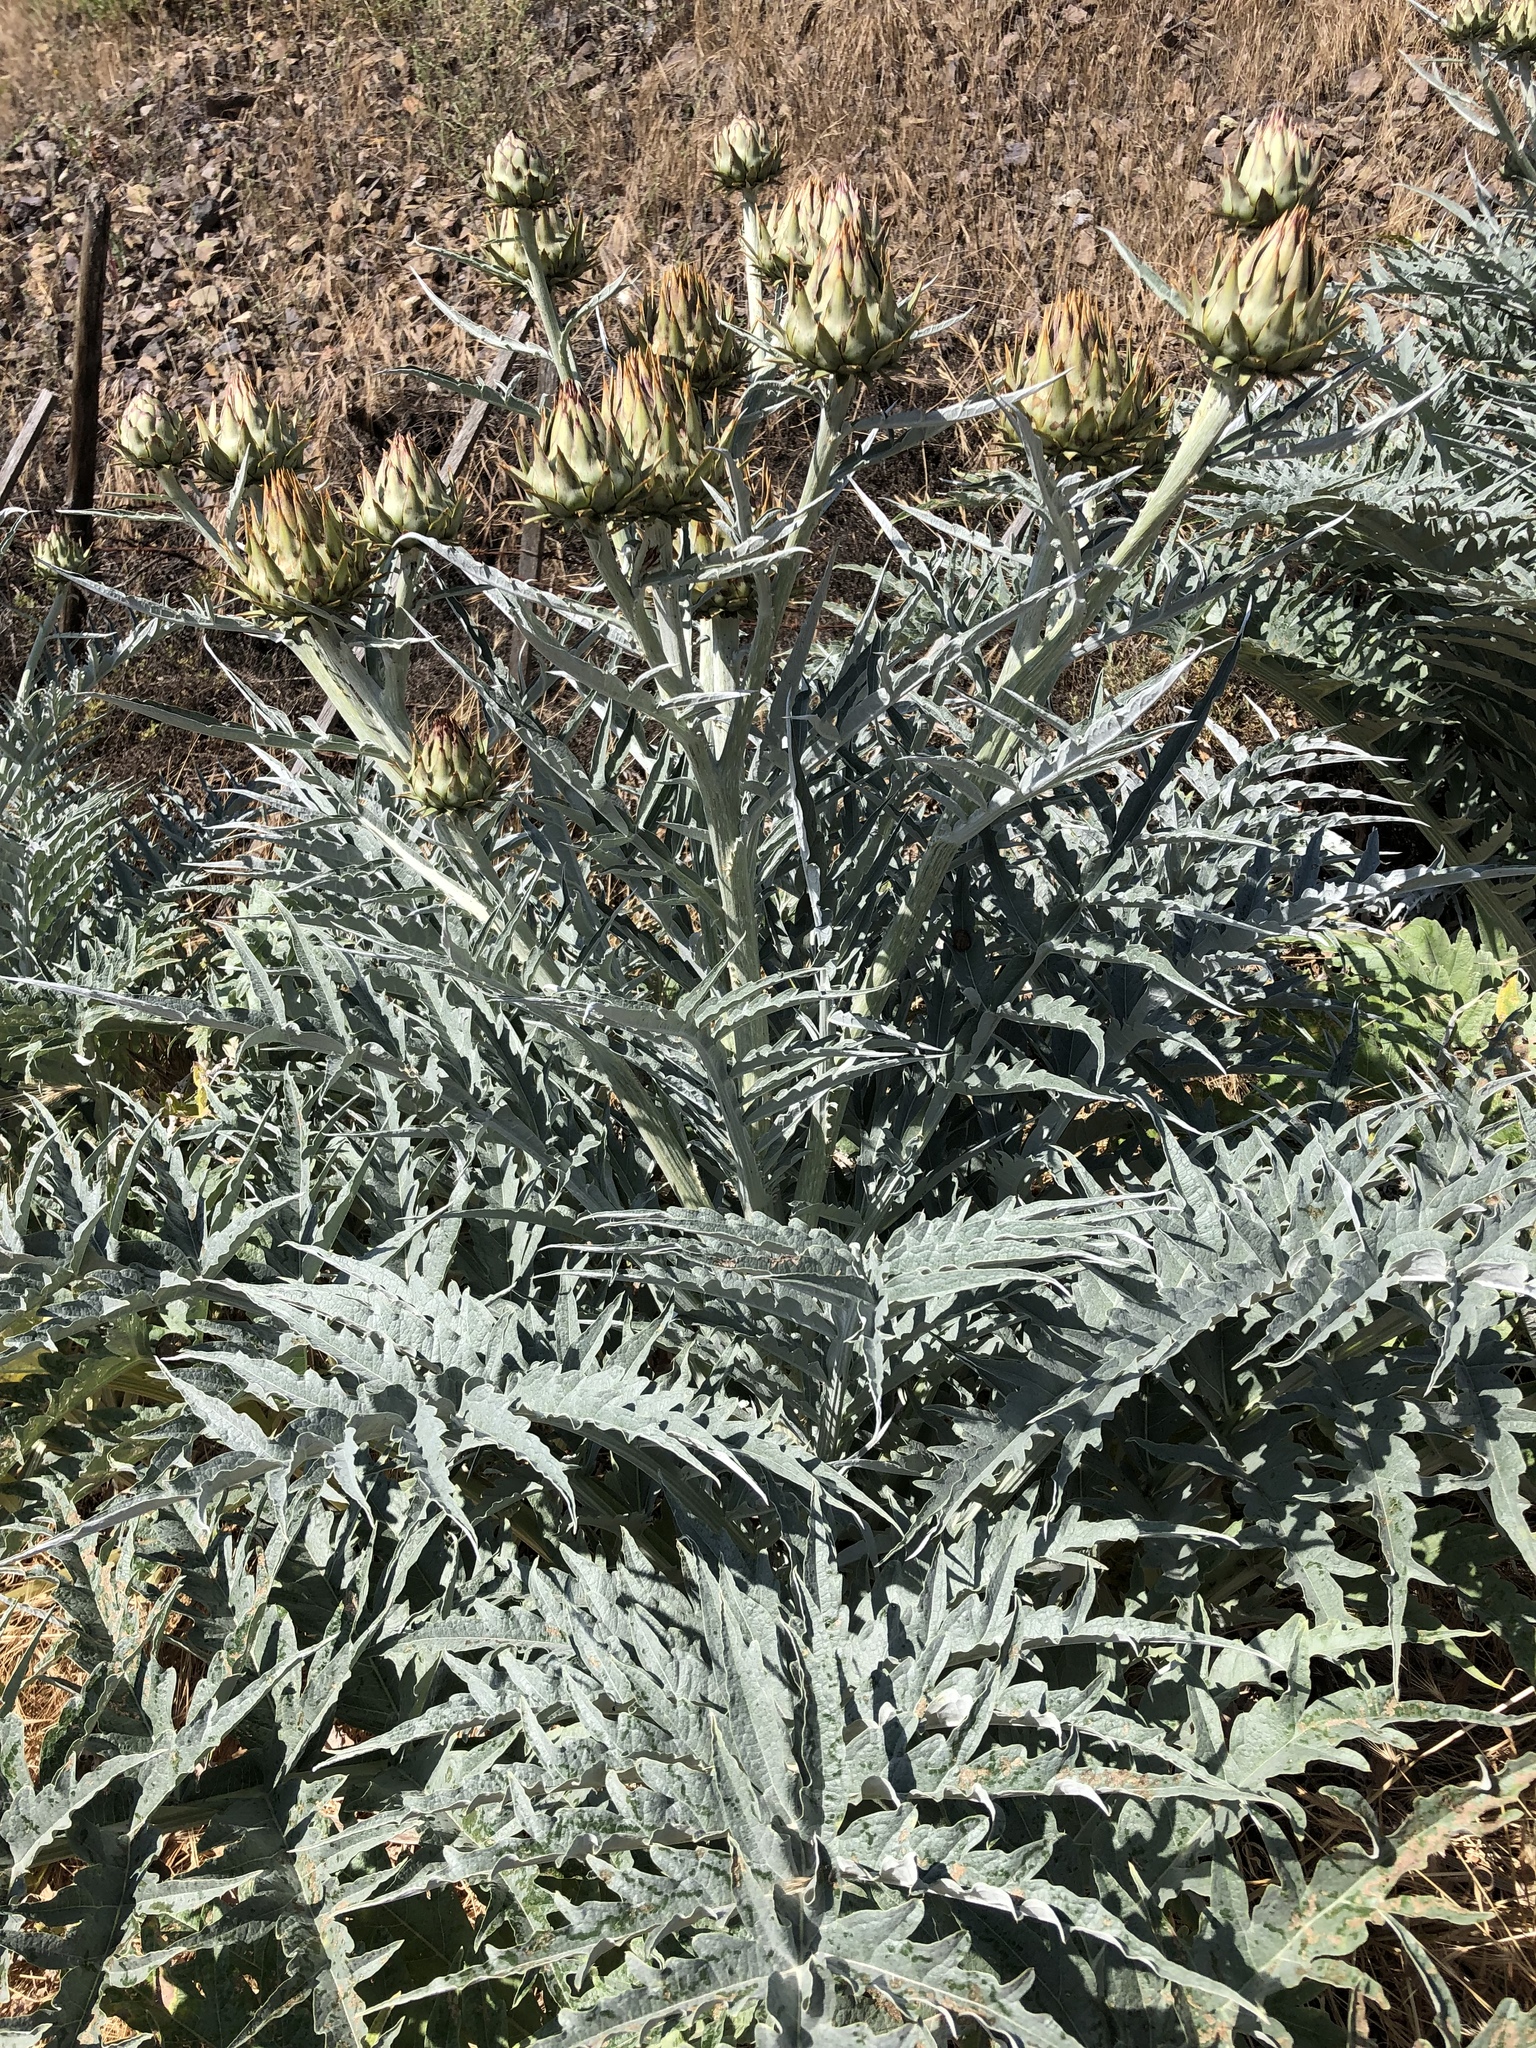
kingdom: Plantae
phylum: Tracheophyta
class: Magnoliopsida
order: Asterales
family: Asteraceae
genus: Cynara
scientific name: Cynara cardunculus
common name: Globe artichoke
